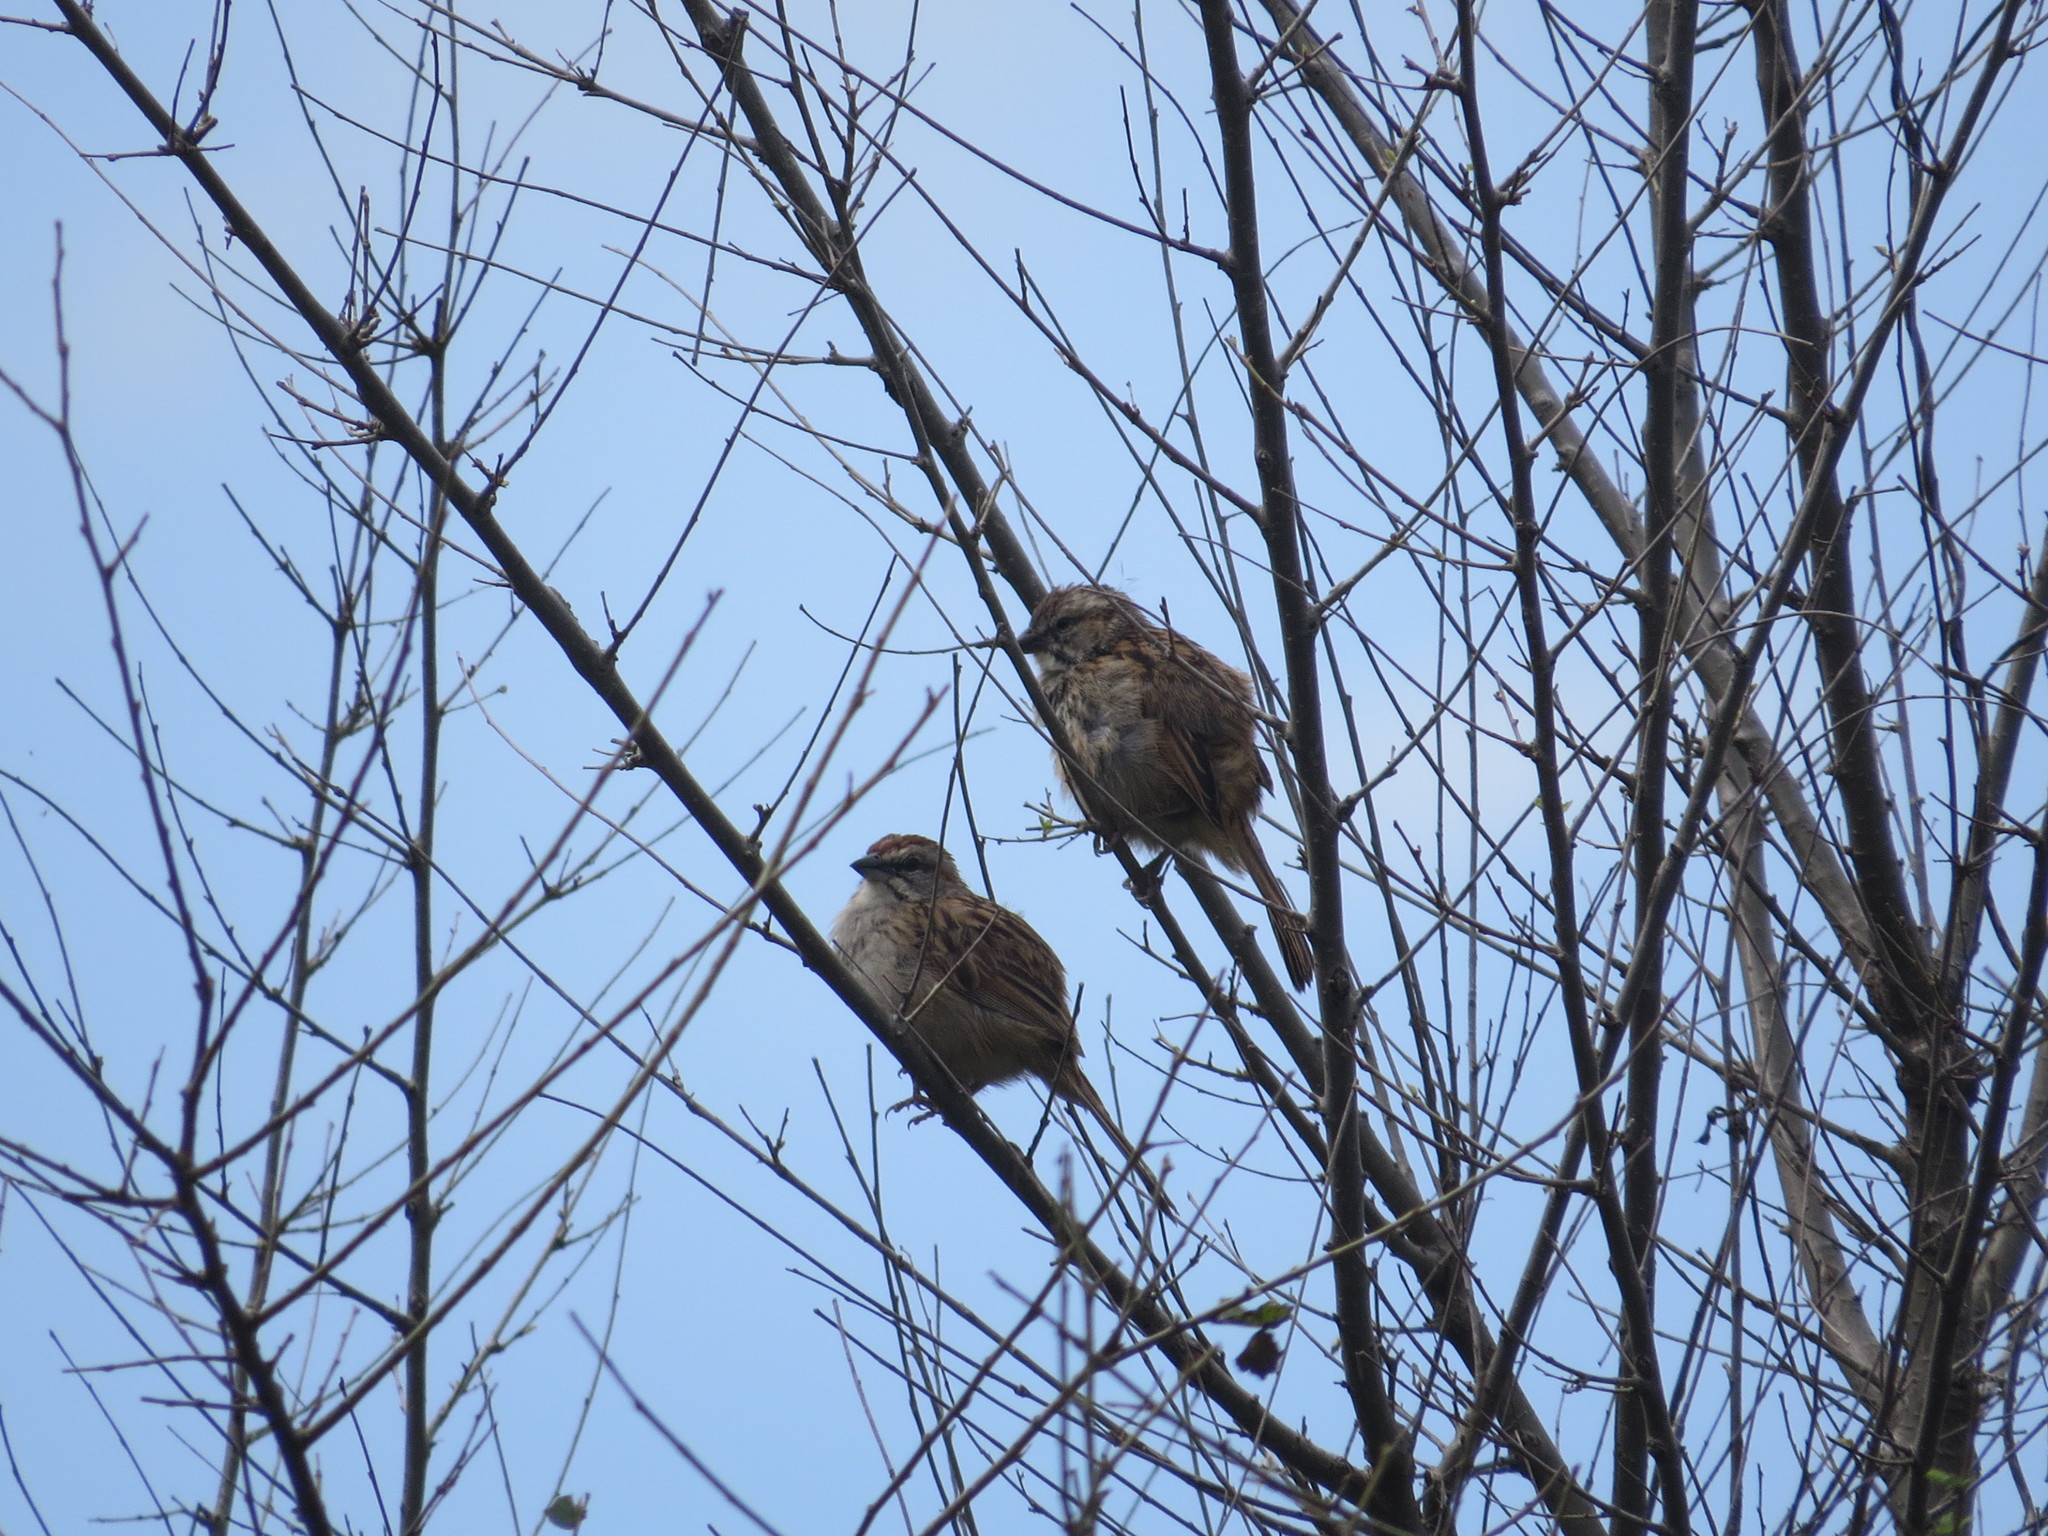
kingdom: Animalia
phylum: Chordata
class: Aves
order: Passeriformes
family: Passerellidae
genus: Rhynchospiza
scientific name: Rhynchospiza strigiceps
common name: Stripe-capped sparrow
